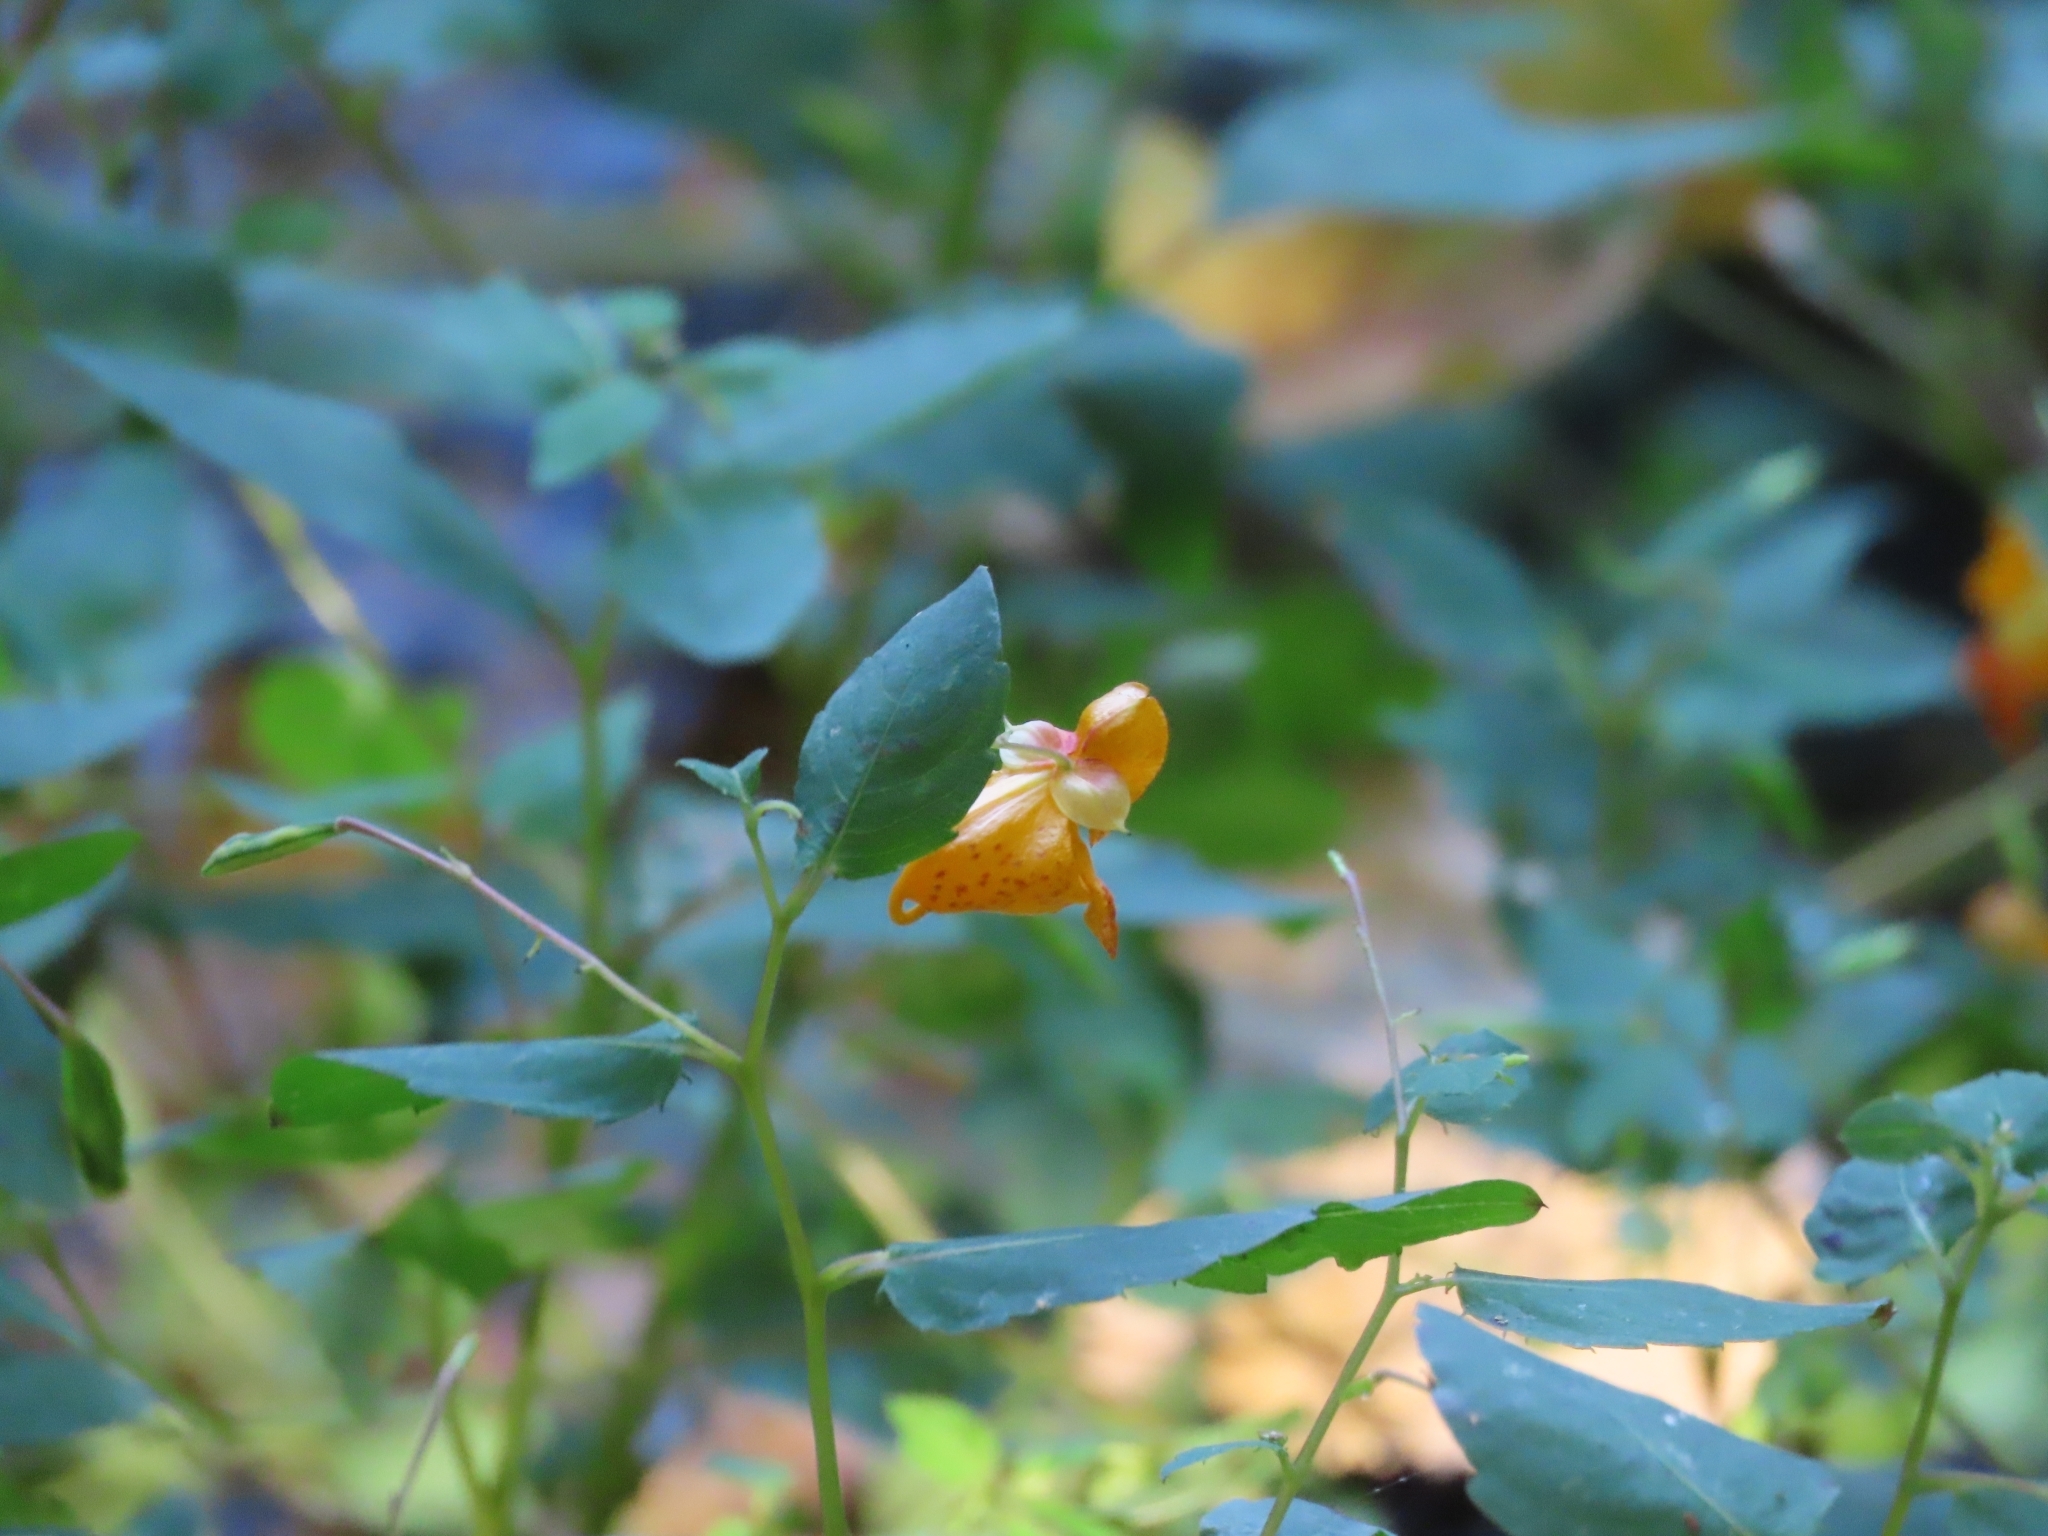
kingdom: Plantae
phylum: Tracheophyta
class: Magnoliopsida
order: Ericales
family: Balsaminaceae
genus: Impatiens
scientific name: Impatiens capensis
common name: Orange balsam
